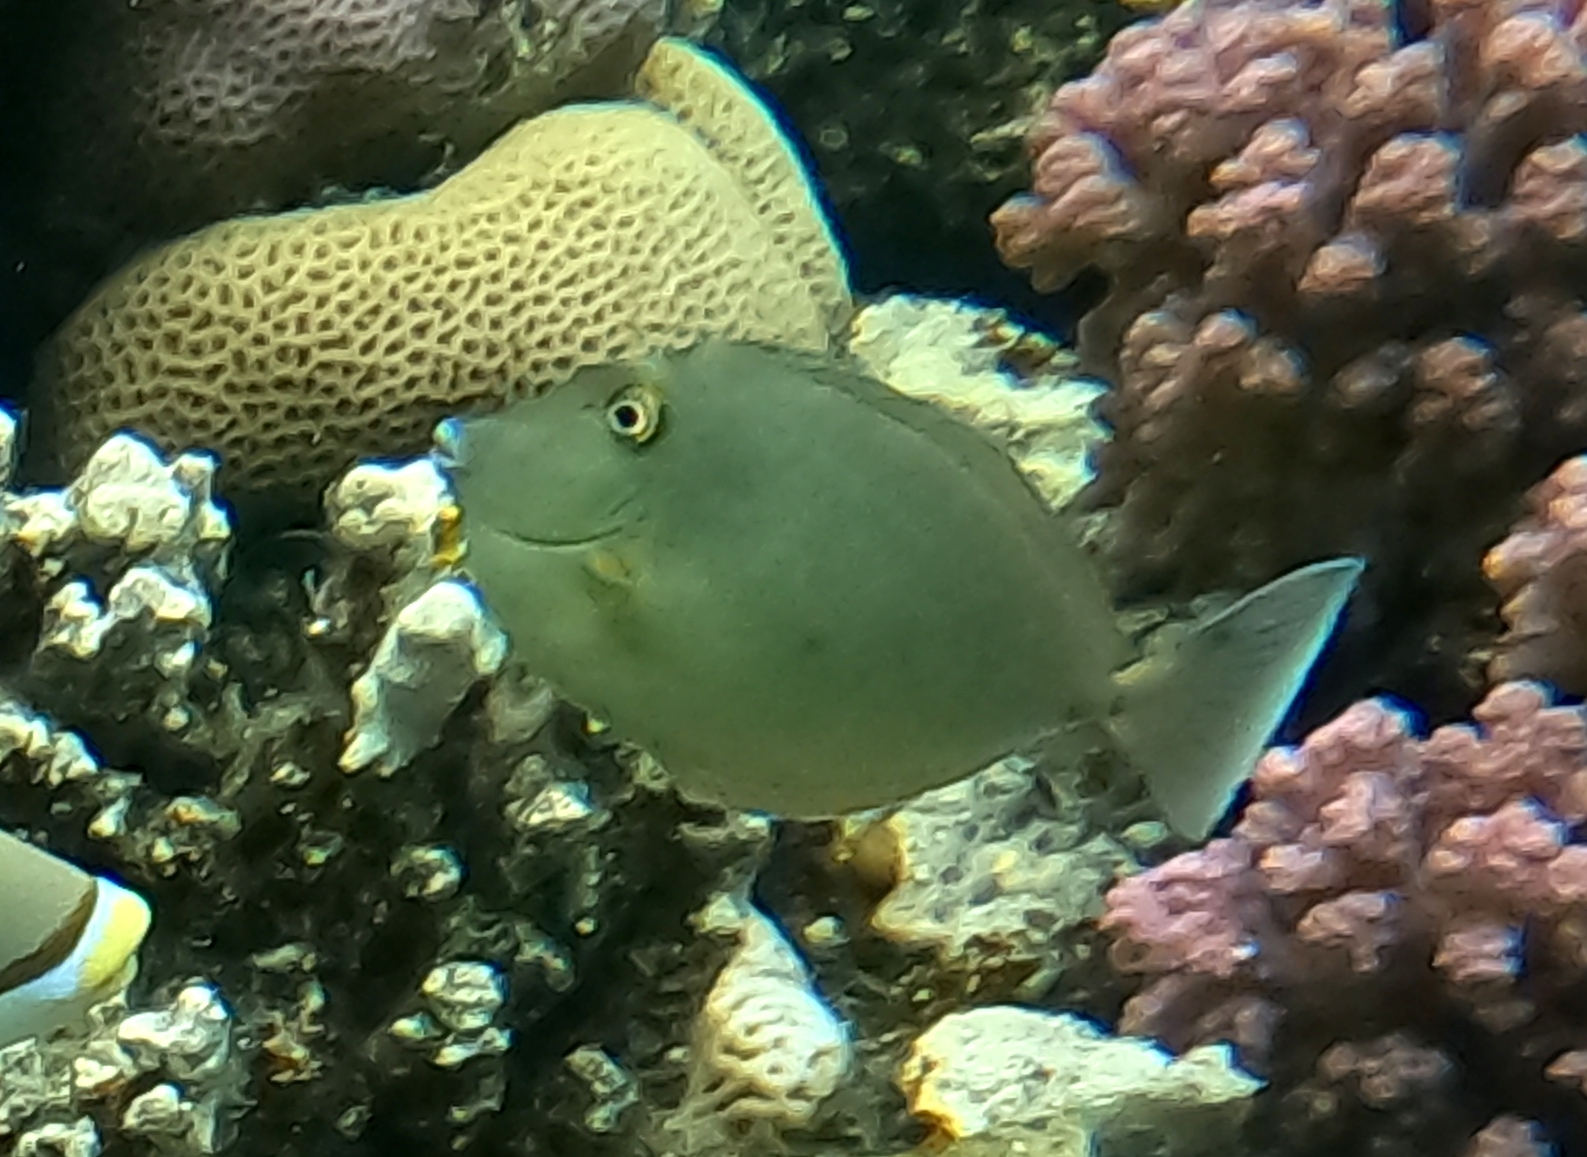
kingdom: Animalia
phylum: Chordata
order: Perciformes
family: Acanthuridae
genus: Naso
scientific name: Naso unicornis
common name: Bluespine unicornfish
